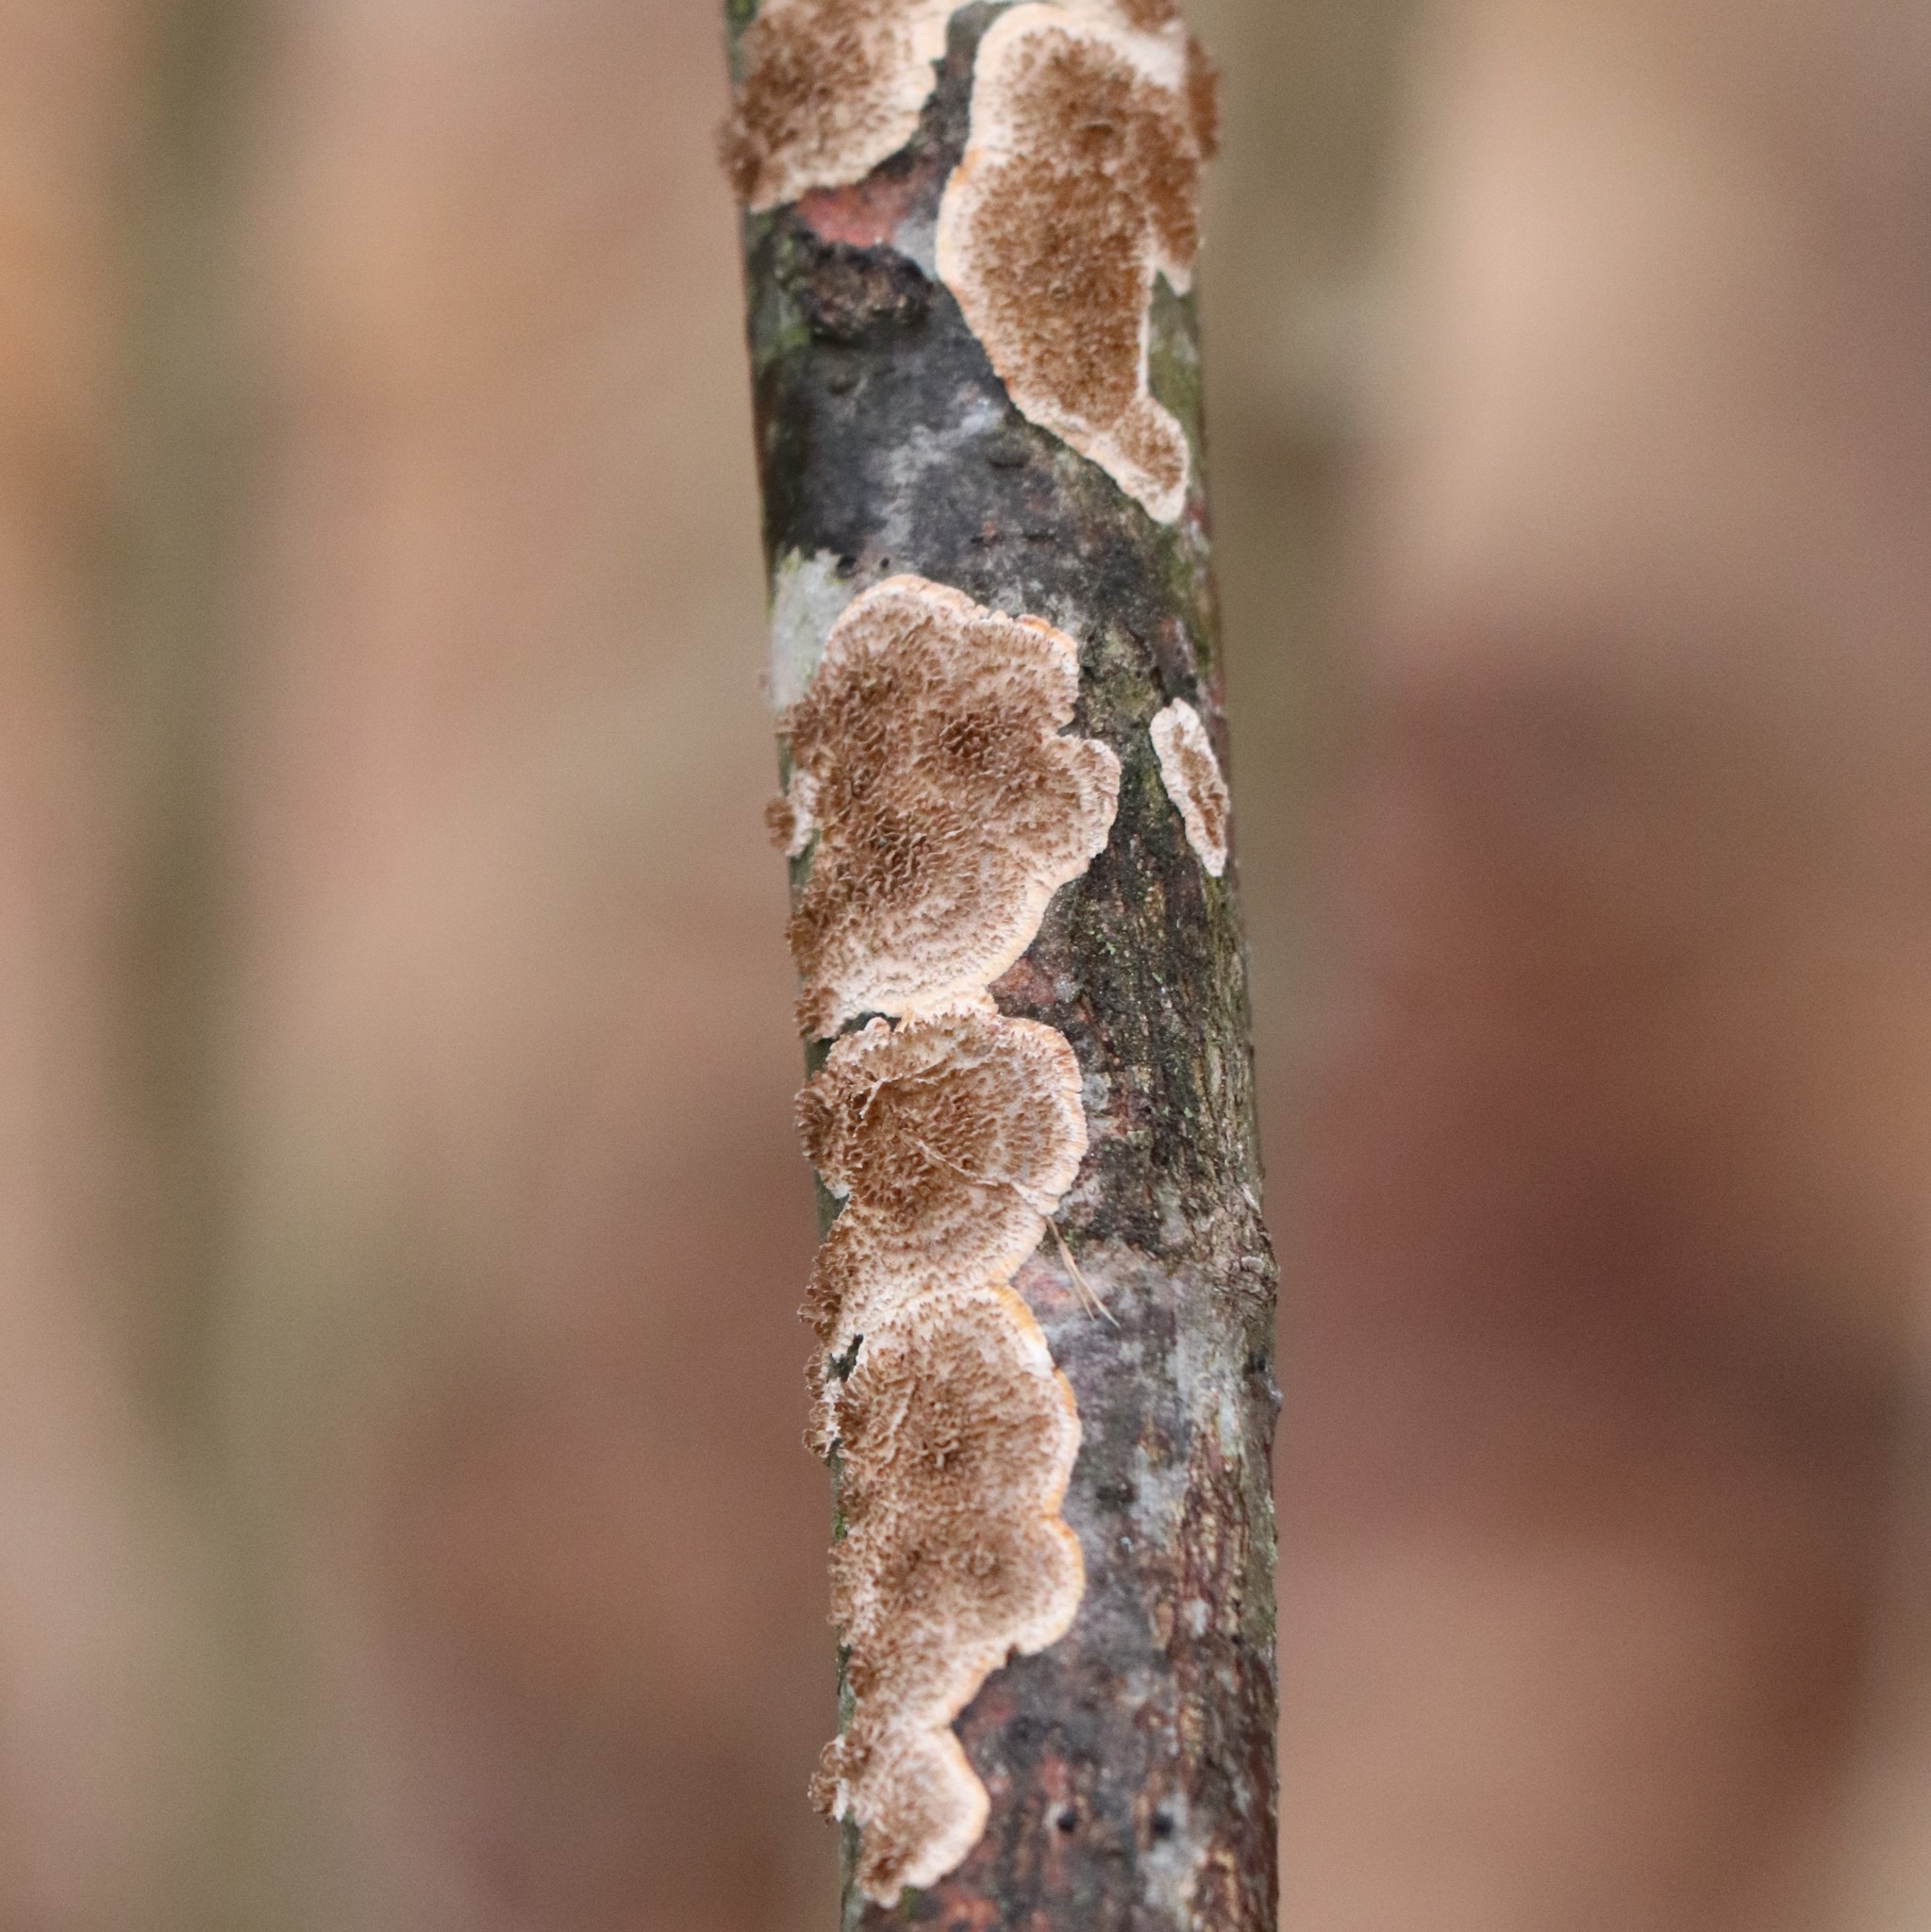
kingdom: Fungi
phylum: Basidiomycota
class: Agaricomycetes
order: Russulales
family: Peniophoraceae
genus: Peniophora
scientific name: Peniophora albobadia
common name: Giraffe spots
